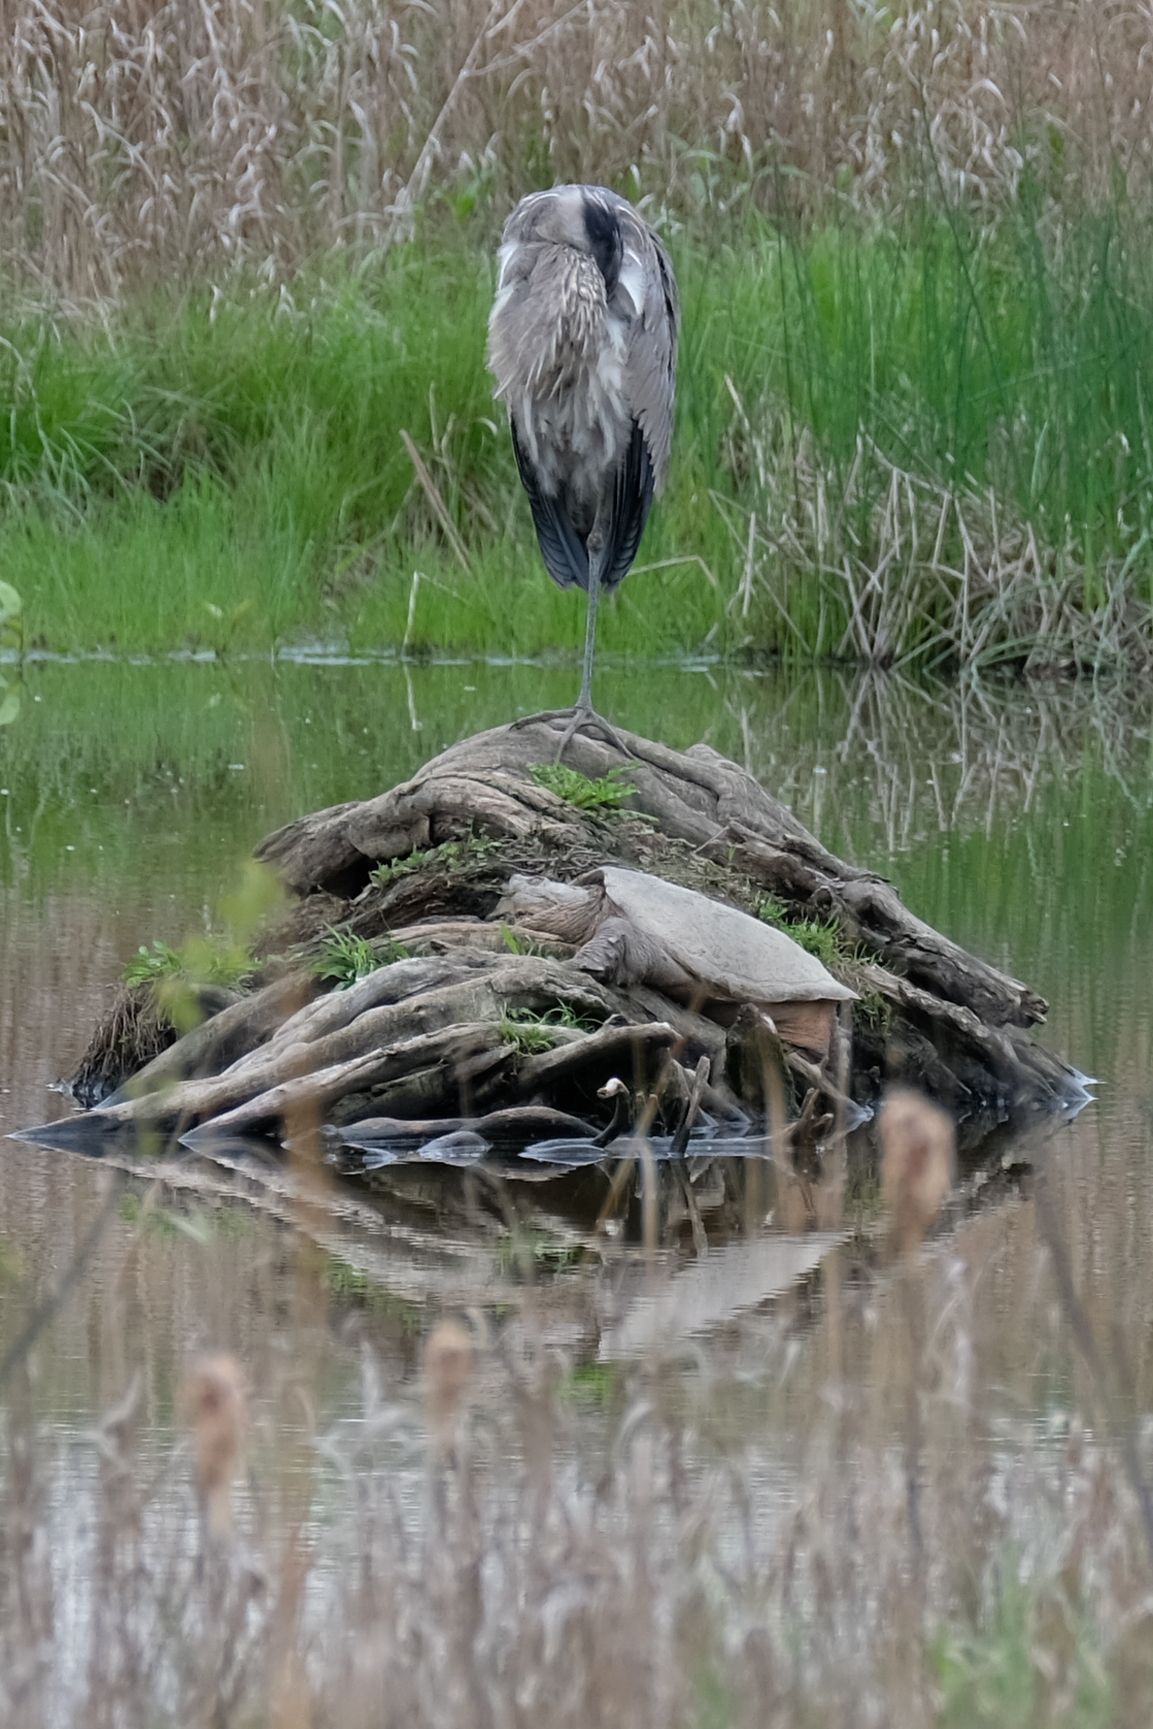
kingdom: Animalia
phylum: Chordata
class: Testudines
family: Chelydridae
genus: Chelydra
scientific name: Chelydra serpentina
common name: Common snapping turtle
